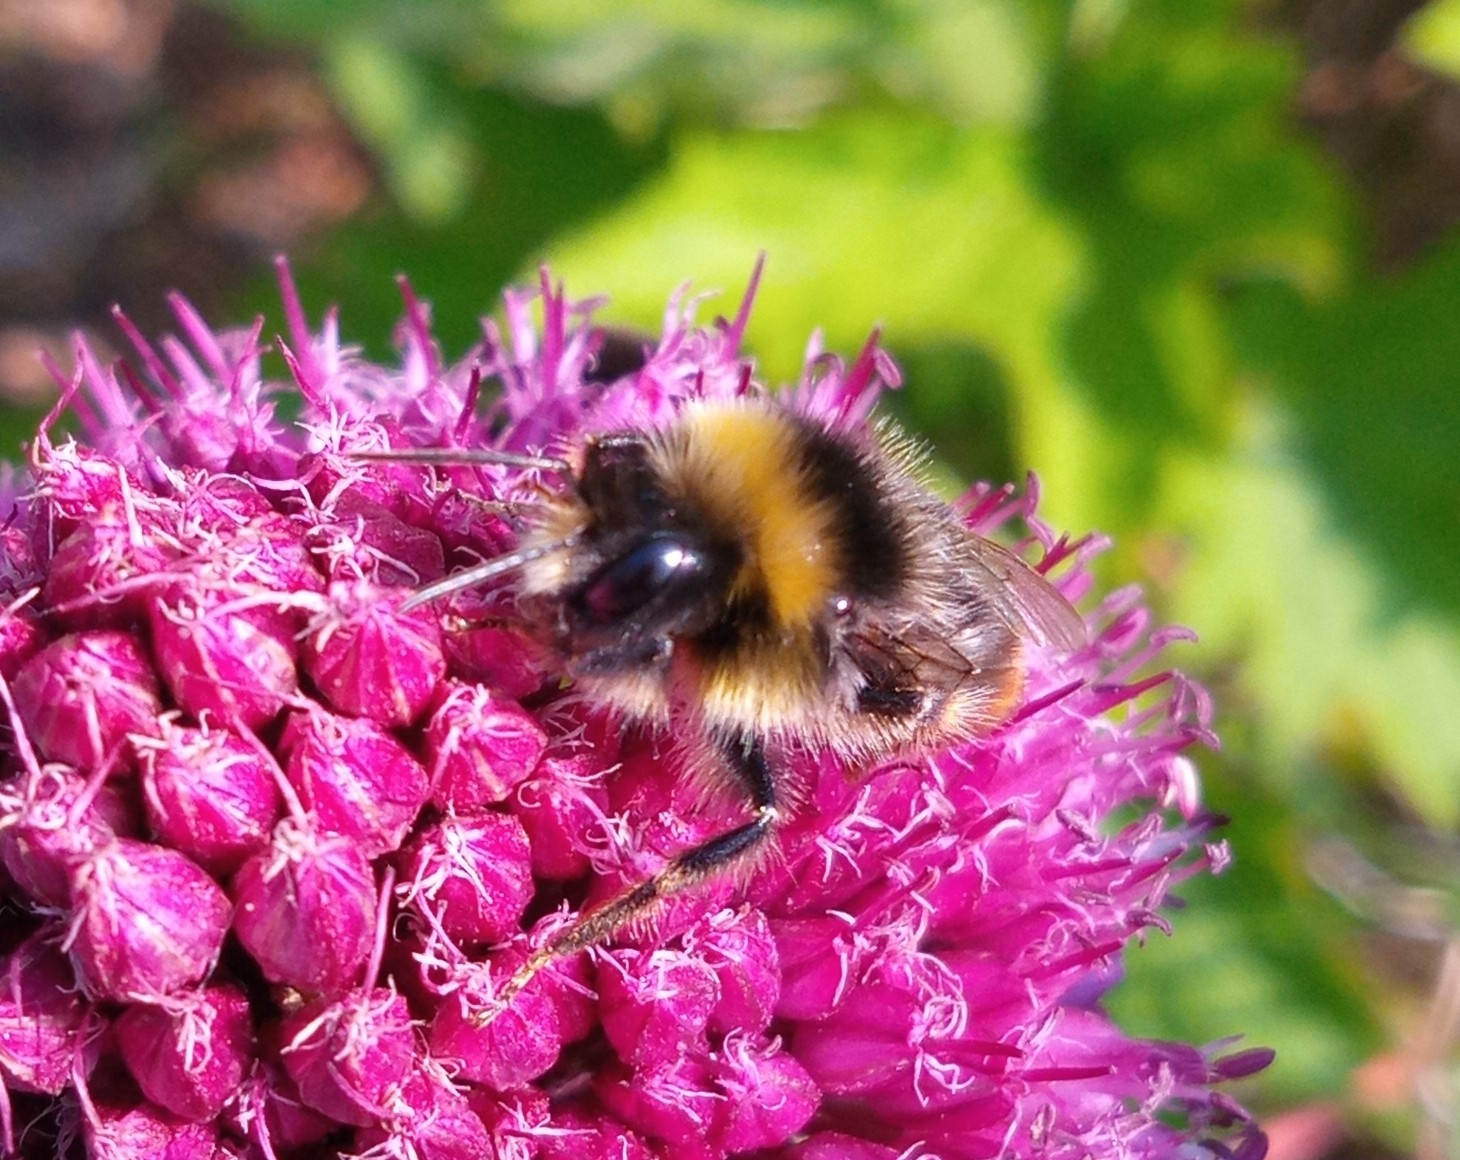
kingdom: Animalia
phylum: Arthropoda
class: Insecta
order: Hymenoptera
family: Apidae
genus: Bombus
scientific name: Bombus lapidarius
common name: Large red-tailed humble-bee
